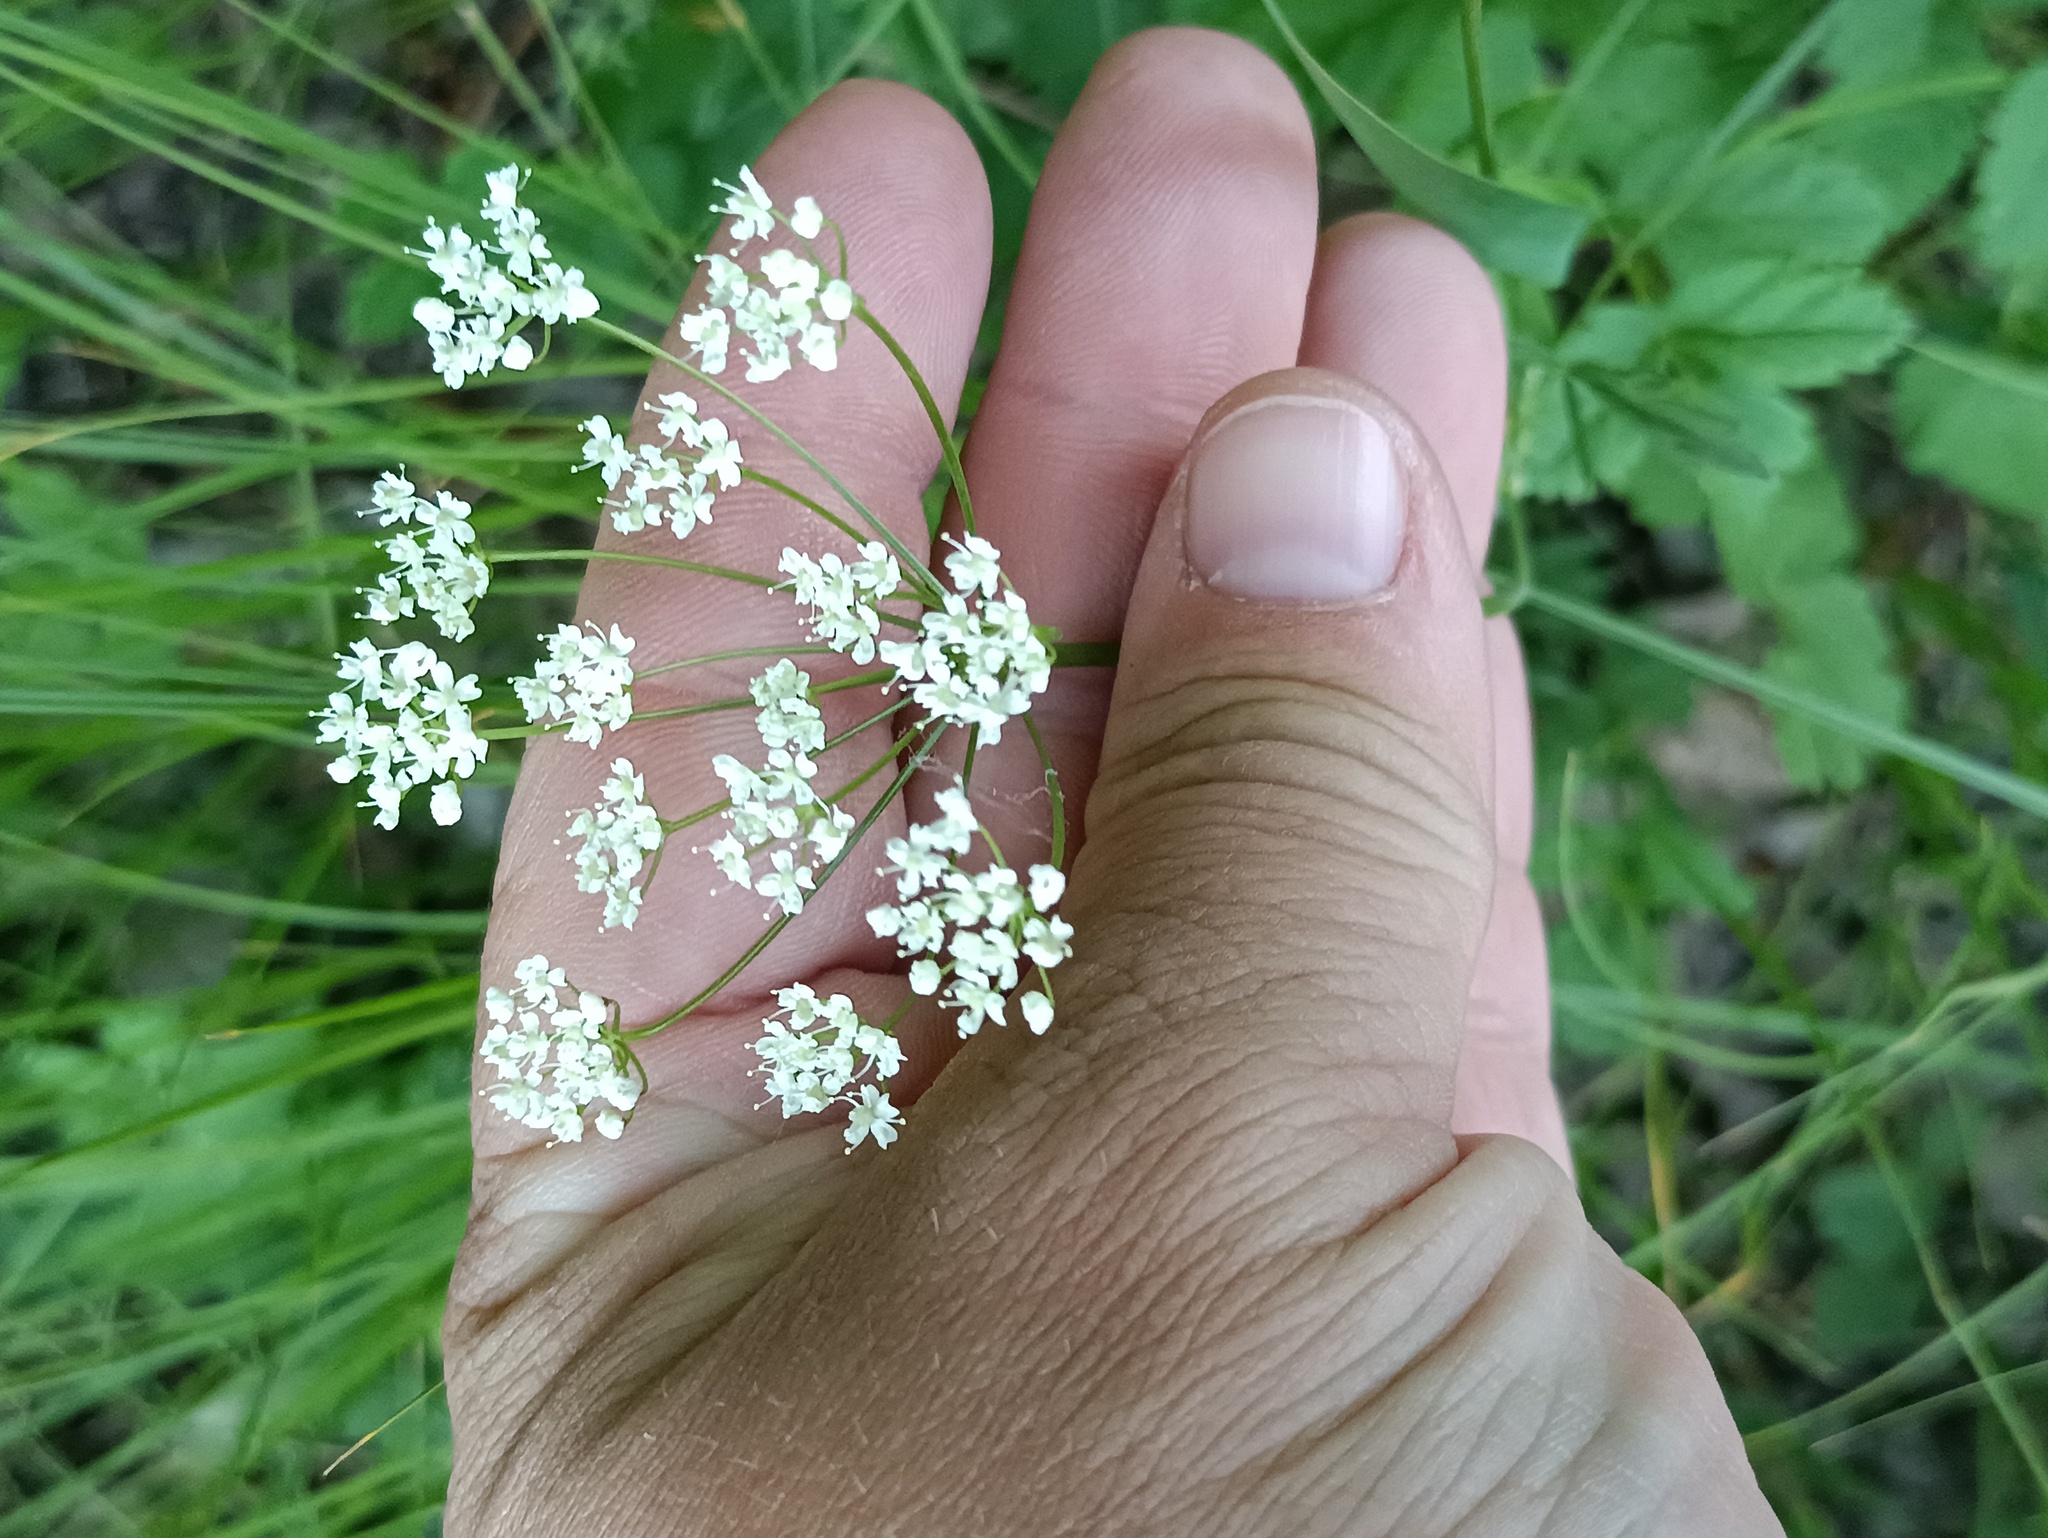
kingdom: Plantae
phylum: Tracheophyta
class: Magnoliopsida
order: Apiales
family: Apiaceae
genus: Pimpinella
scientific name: Pimpinella saxifraga
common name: Burnet-saxifrage
